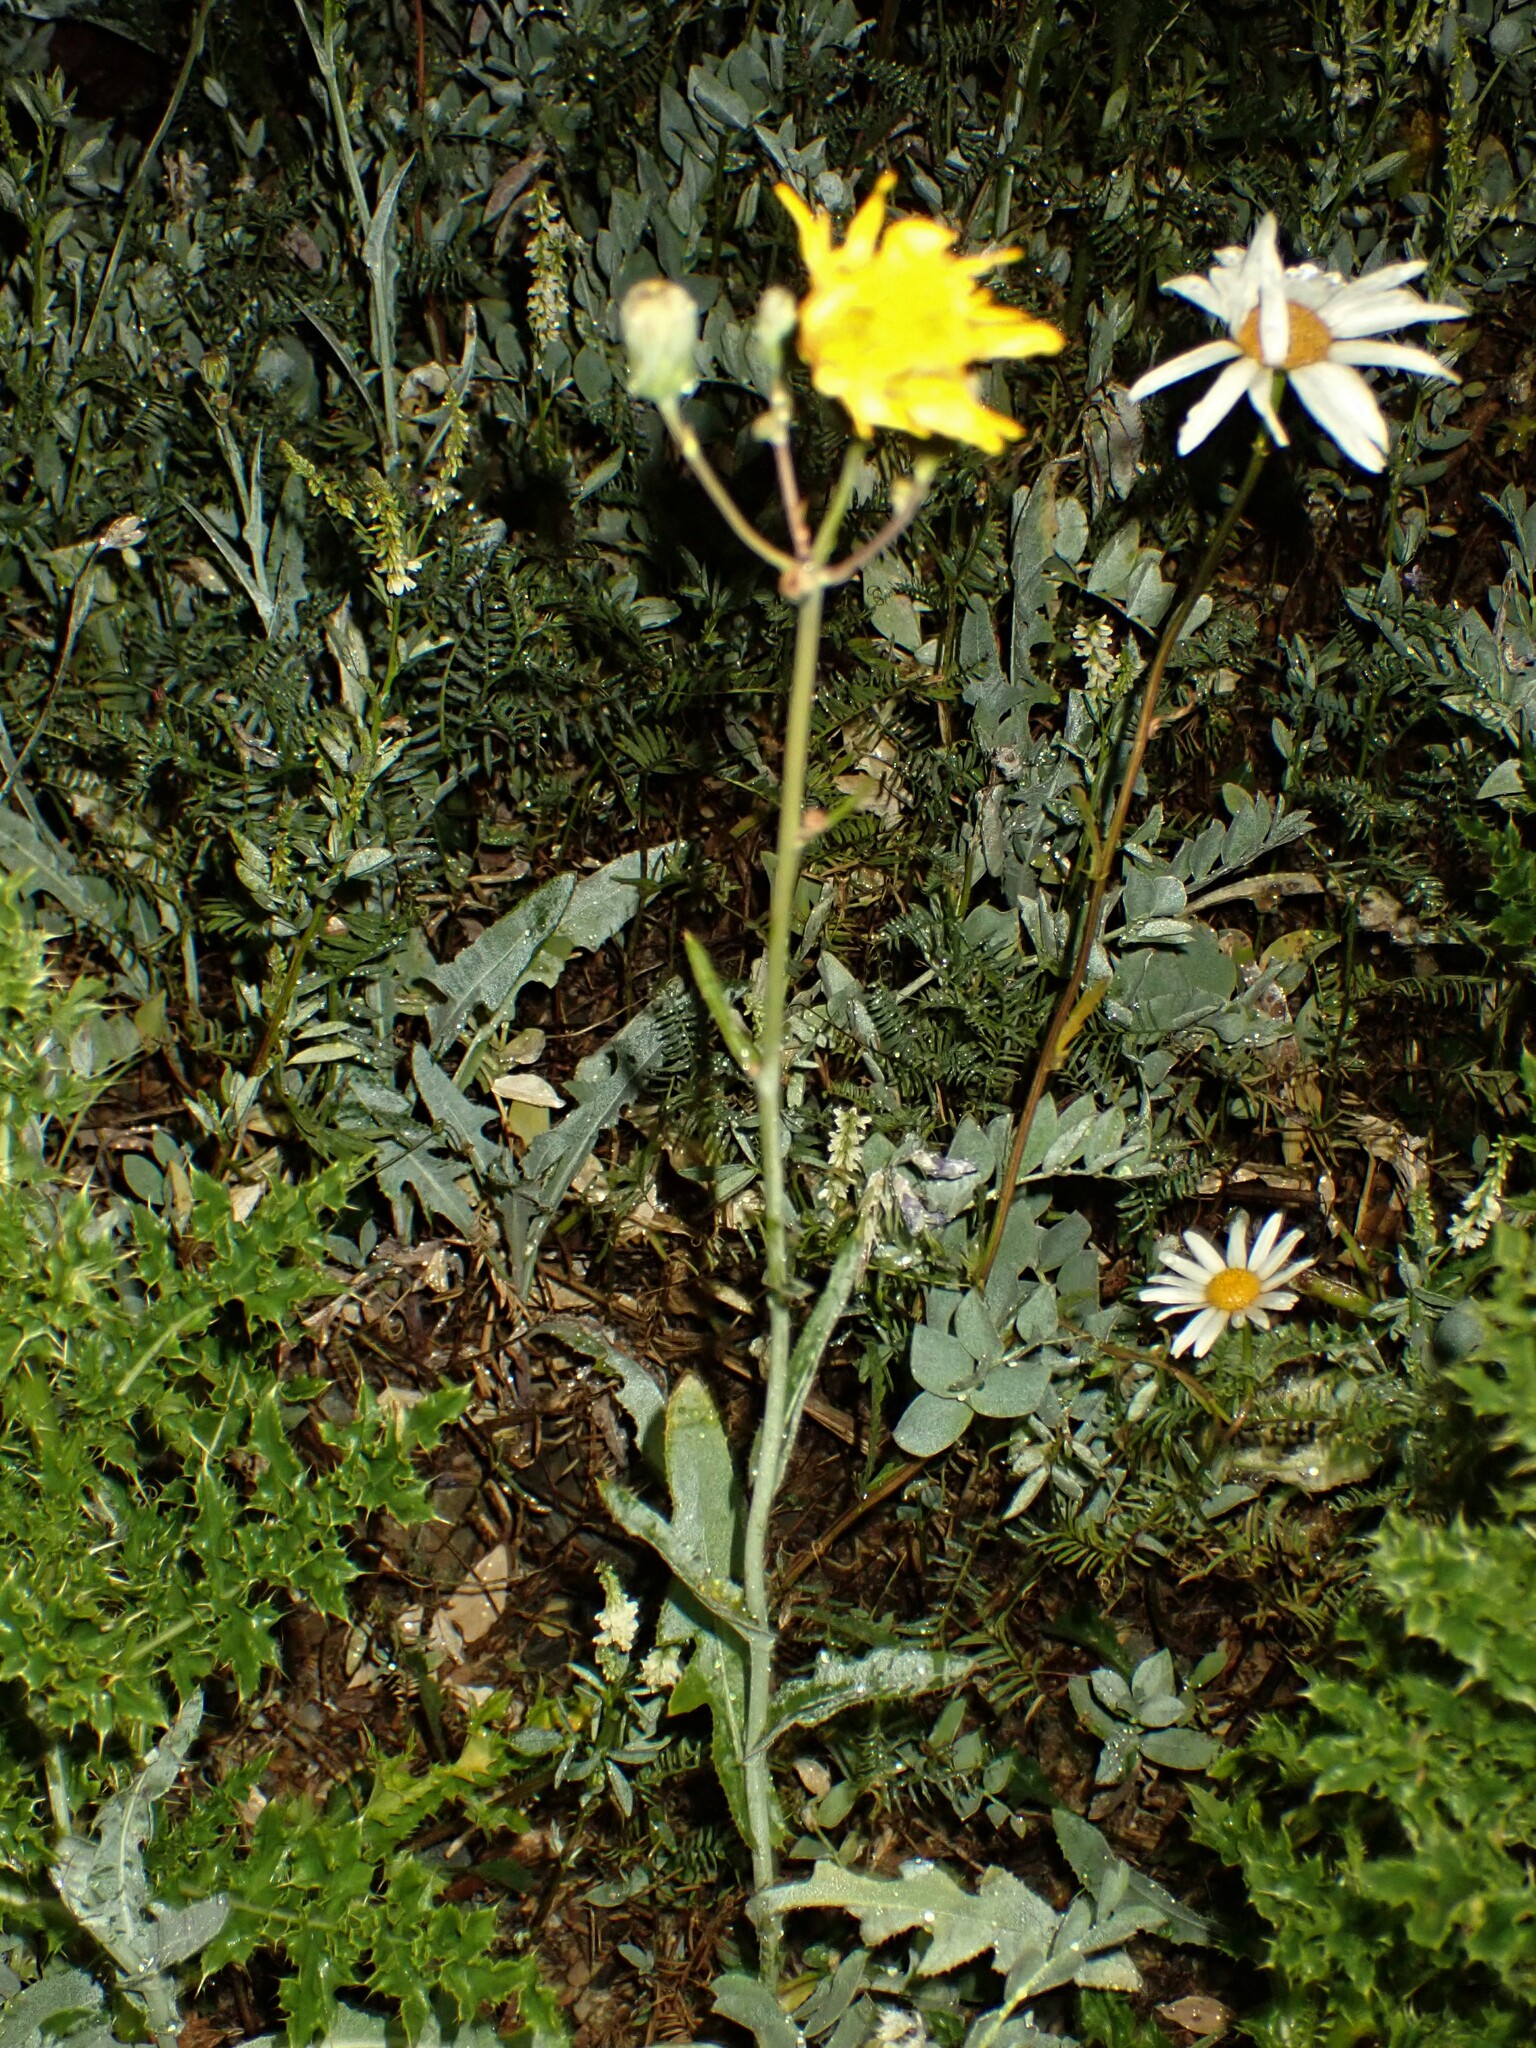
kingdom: Plantae
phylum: Tracheophyta
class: Magnoliopsida
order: Asterales
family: Asteraceae
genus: Sonchus
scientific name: Sonchus arvensis
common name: Perennial sow-thistle
